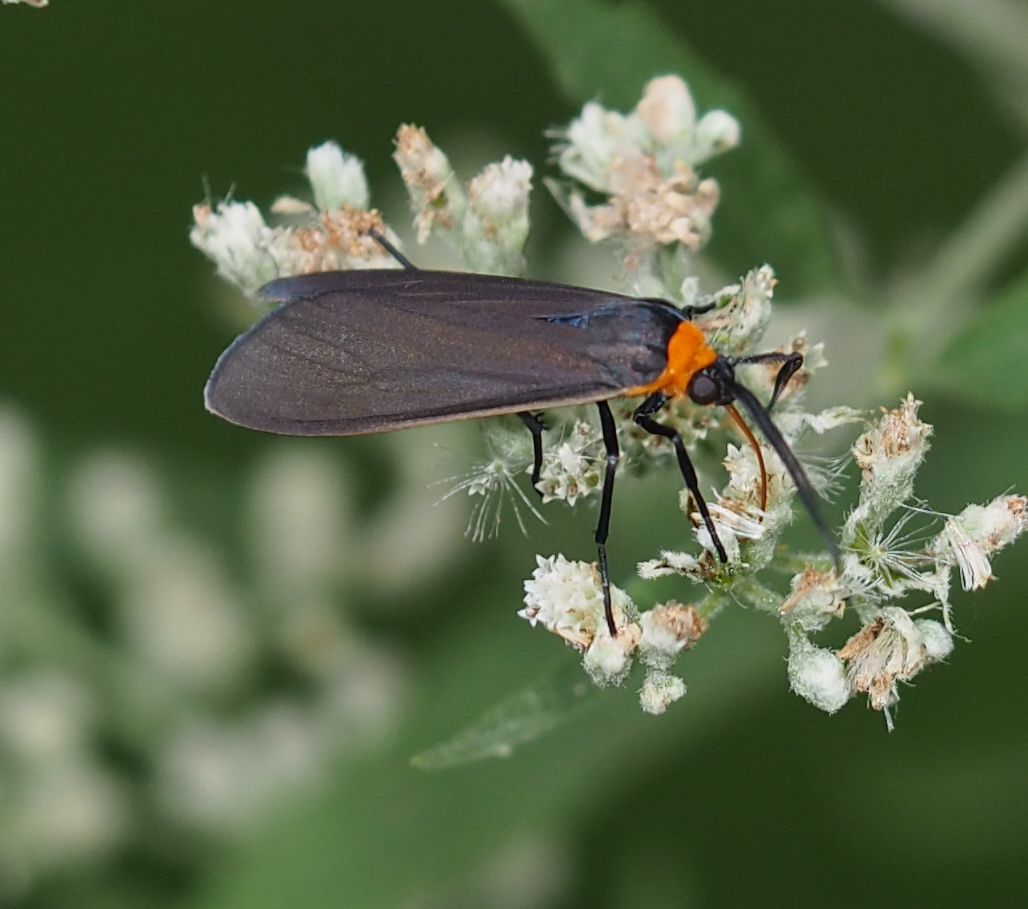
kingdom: Animalia
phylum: Arthropoda
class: Insecta
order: Lepidoptera
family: Erebidae
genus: Cisseps
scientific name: Cisseps fulvicollis
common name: Yellow-collared scape moth
